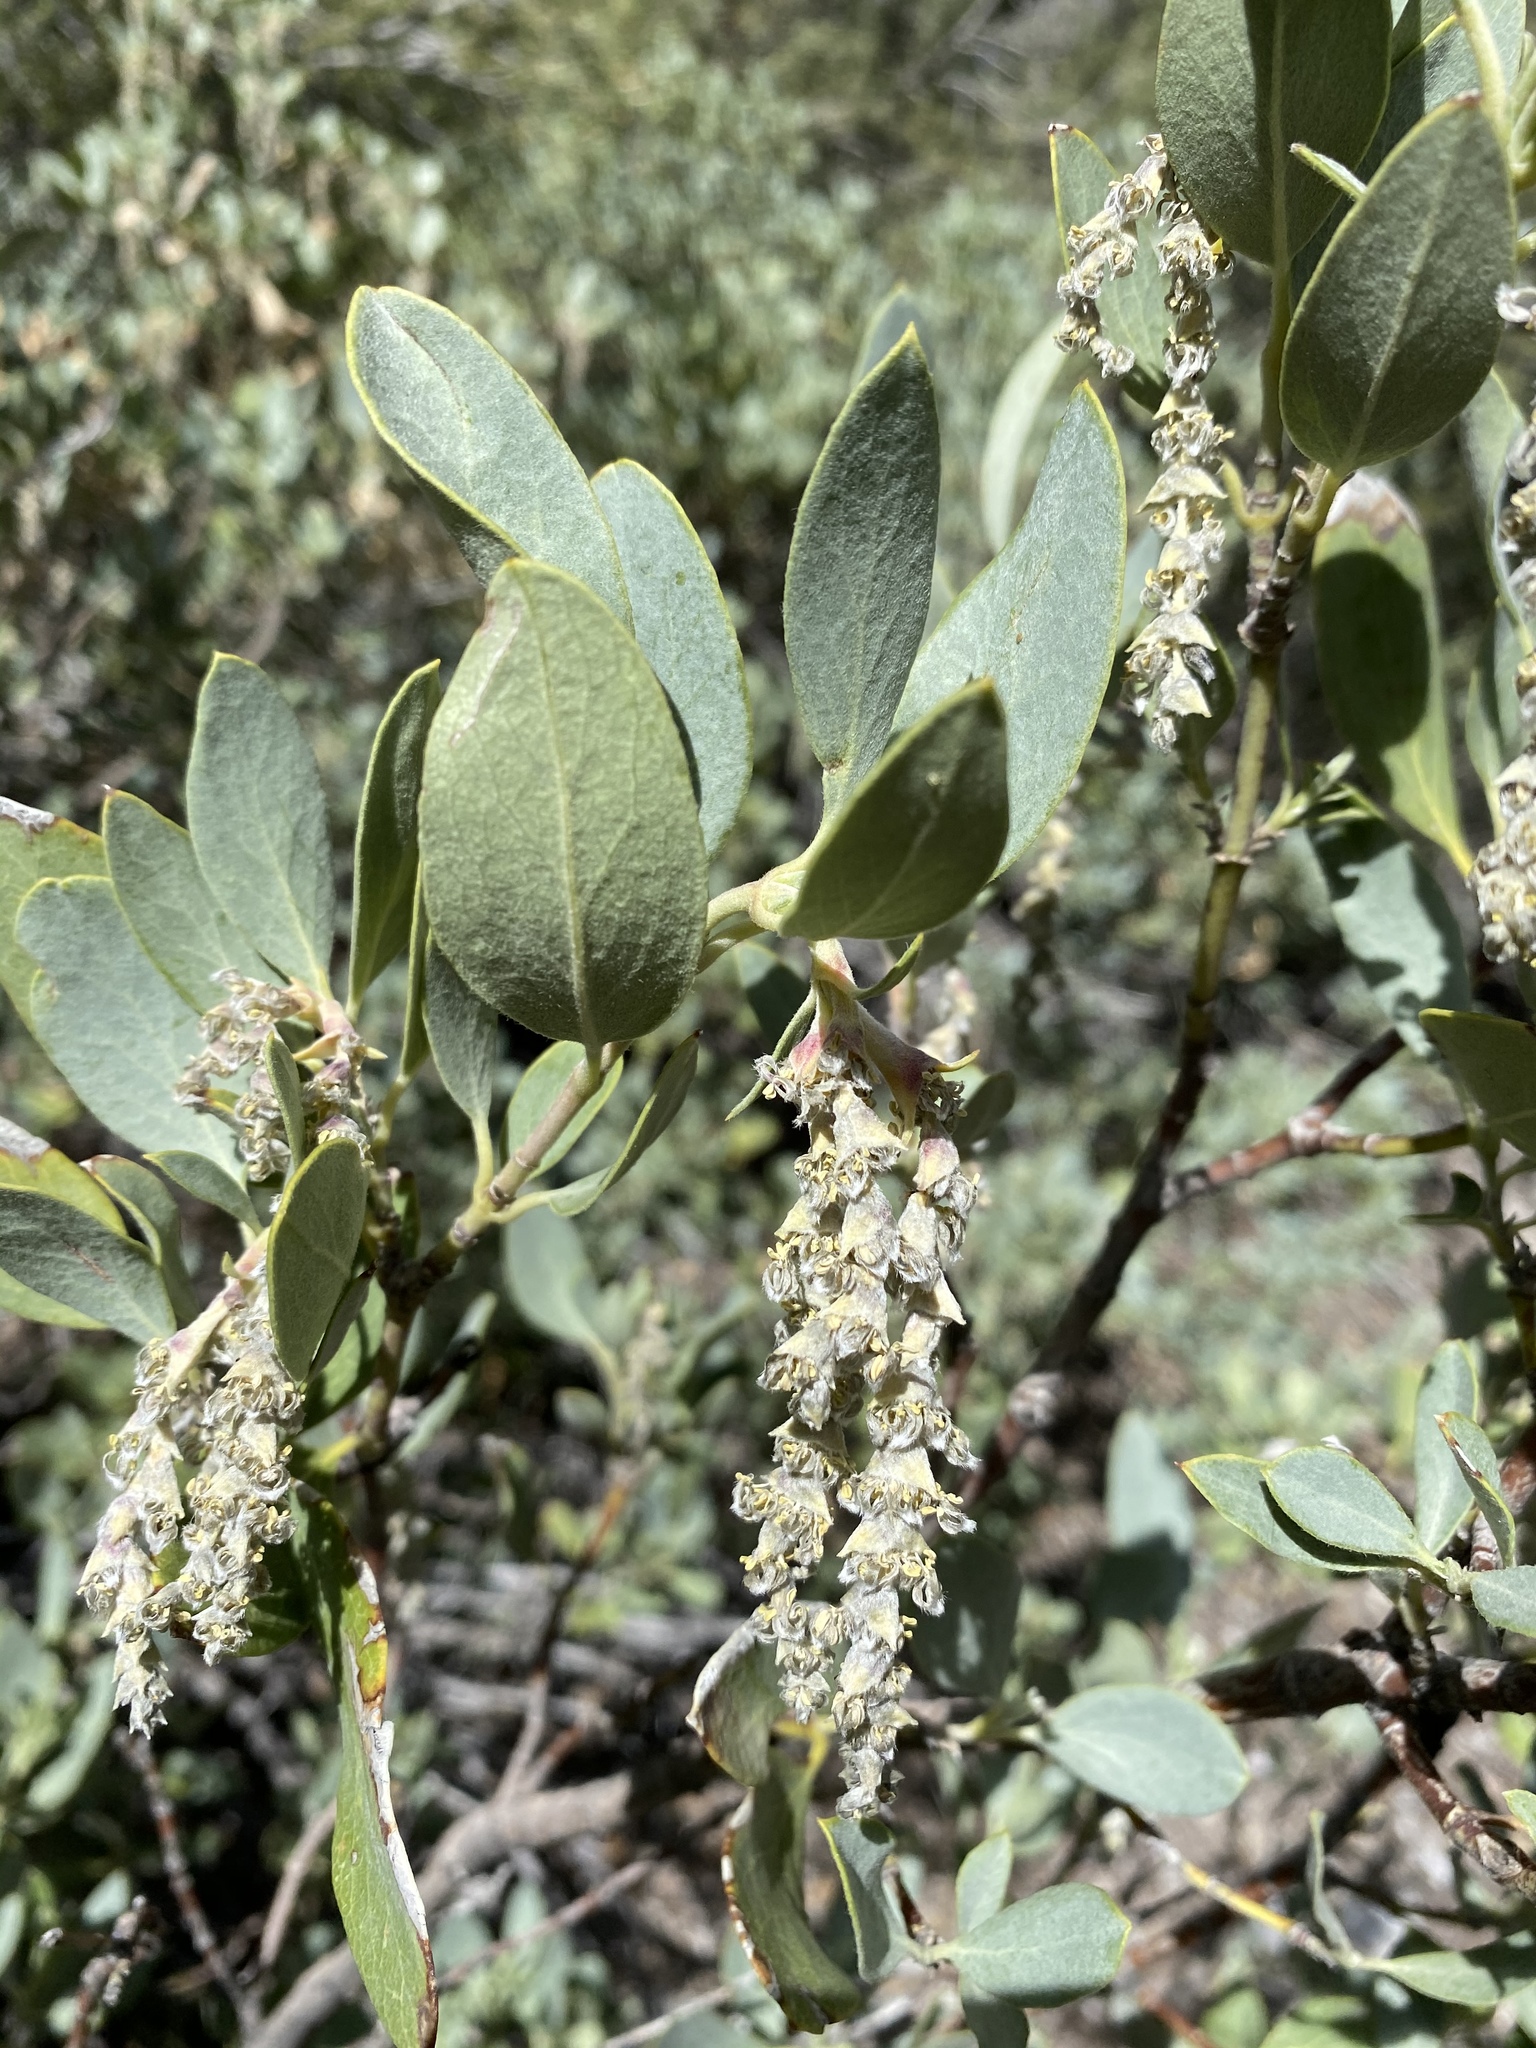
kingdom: Plantae
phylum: Tracheophyta
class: Magnoliopsida
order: Garryales
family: Garryaceae
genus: Garrya
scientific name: Garrya flavescens
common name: Ashy silk-tassel
